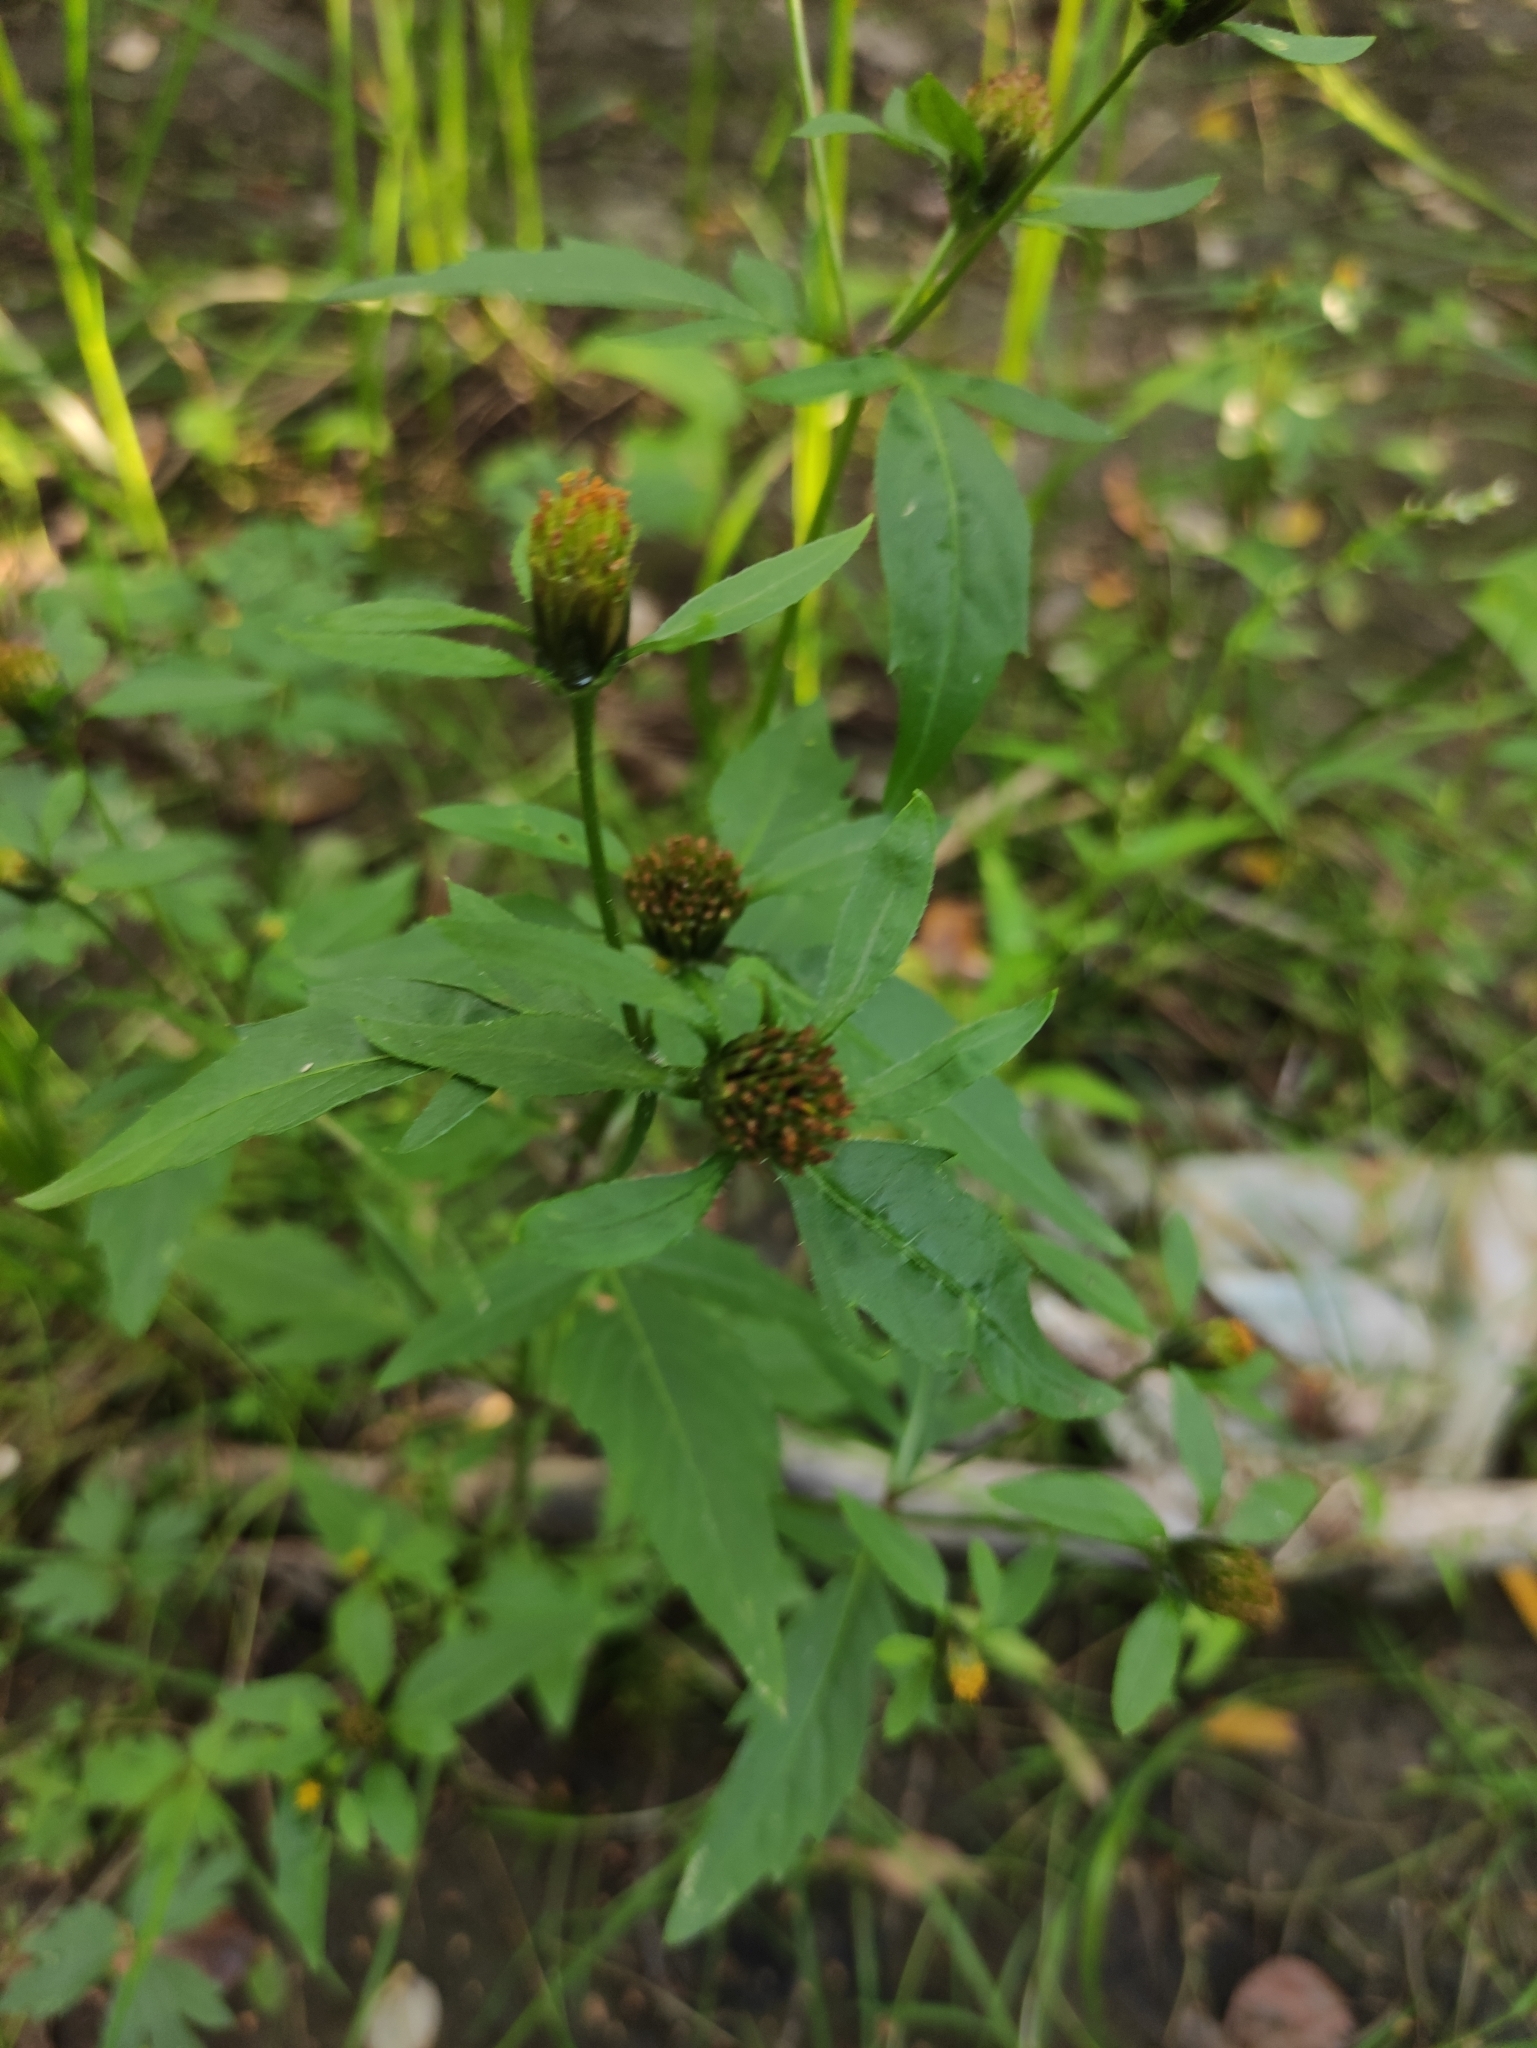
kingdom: Plantae
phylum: Tracheophyta
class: Magnoliopsida
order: Asterales
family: Asteraceae
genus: Bidens
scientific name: Bidens tripartita
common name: Trifid bur-marigold
